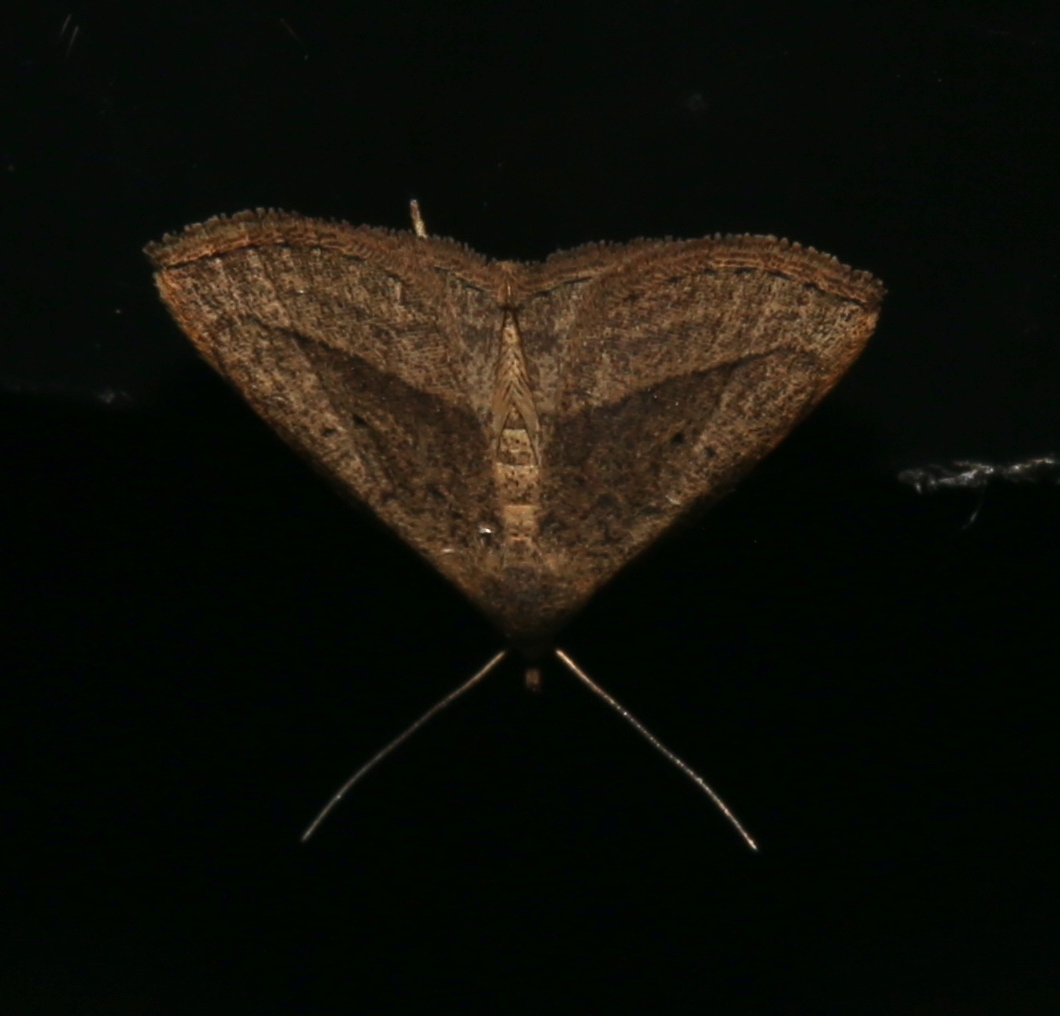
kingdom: Animalia
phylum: Arthropoda
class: Insecta
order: Lepidoptera
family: Erebidae
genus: Macrochilo
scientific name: Macrochilo hypocritalis
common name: Twin-dotted owlet
